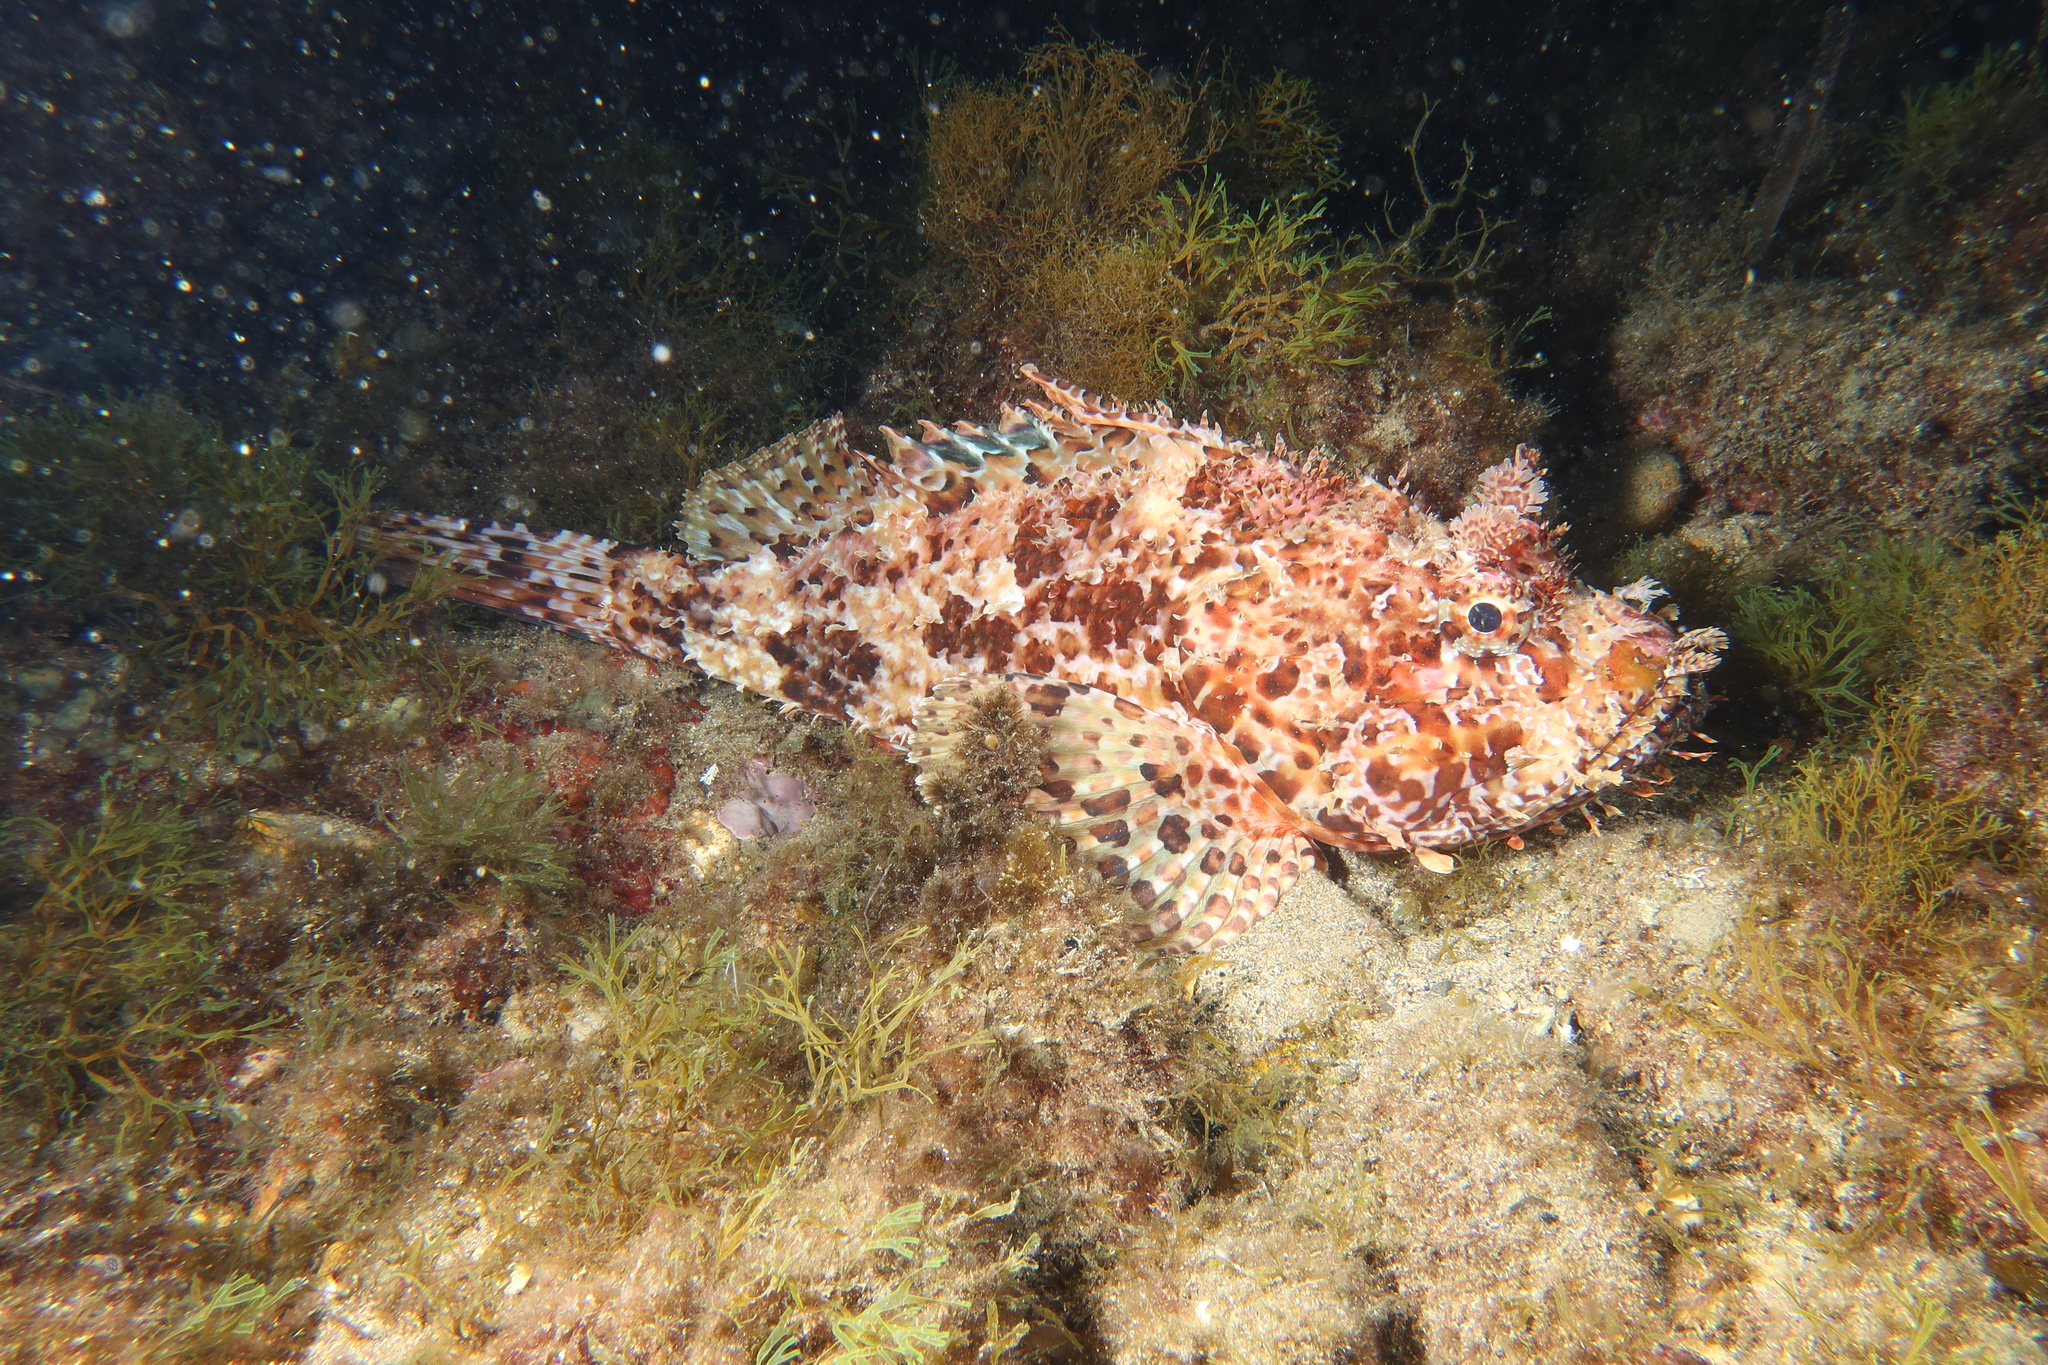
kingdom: Animalia
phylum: Chordata
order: Scorpaeniformes
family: Scorpaenidae
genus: Scorpaena
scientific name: Scorpaena scrofa
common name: Red scorpionfish
